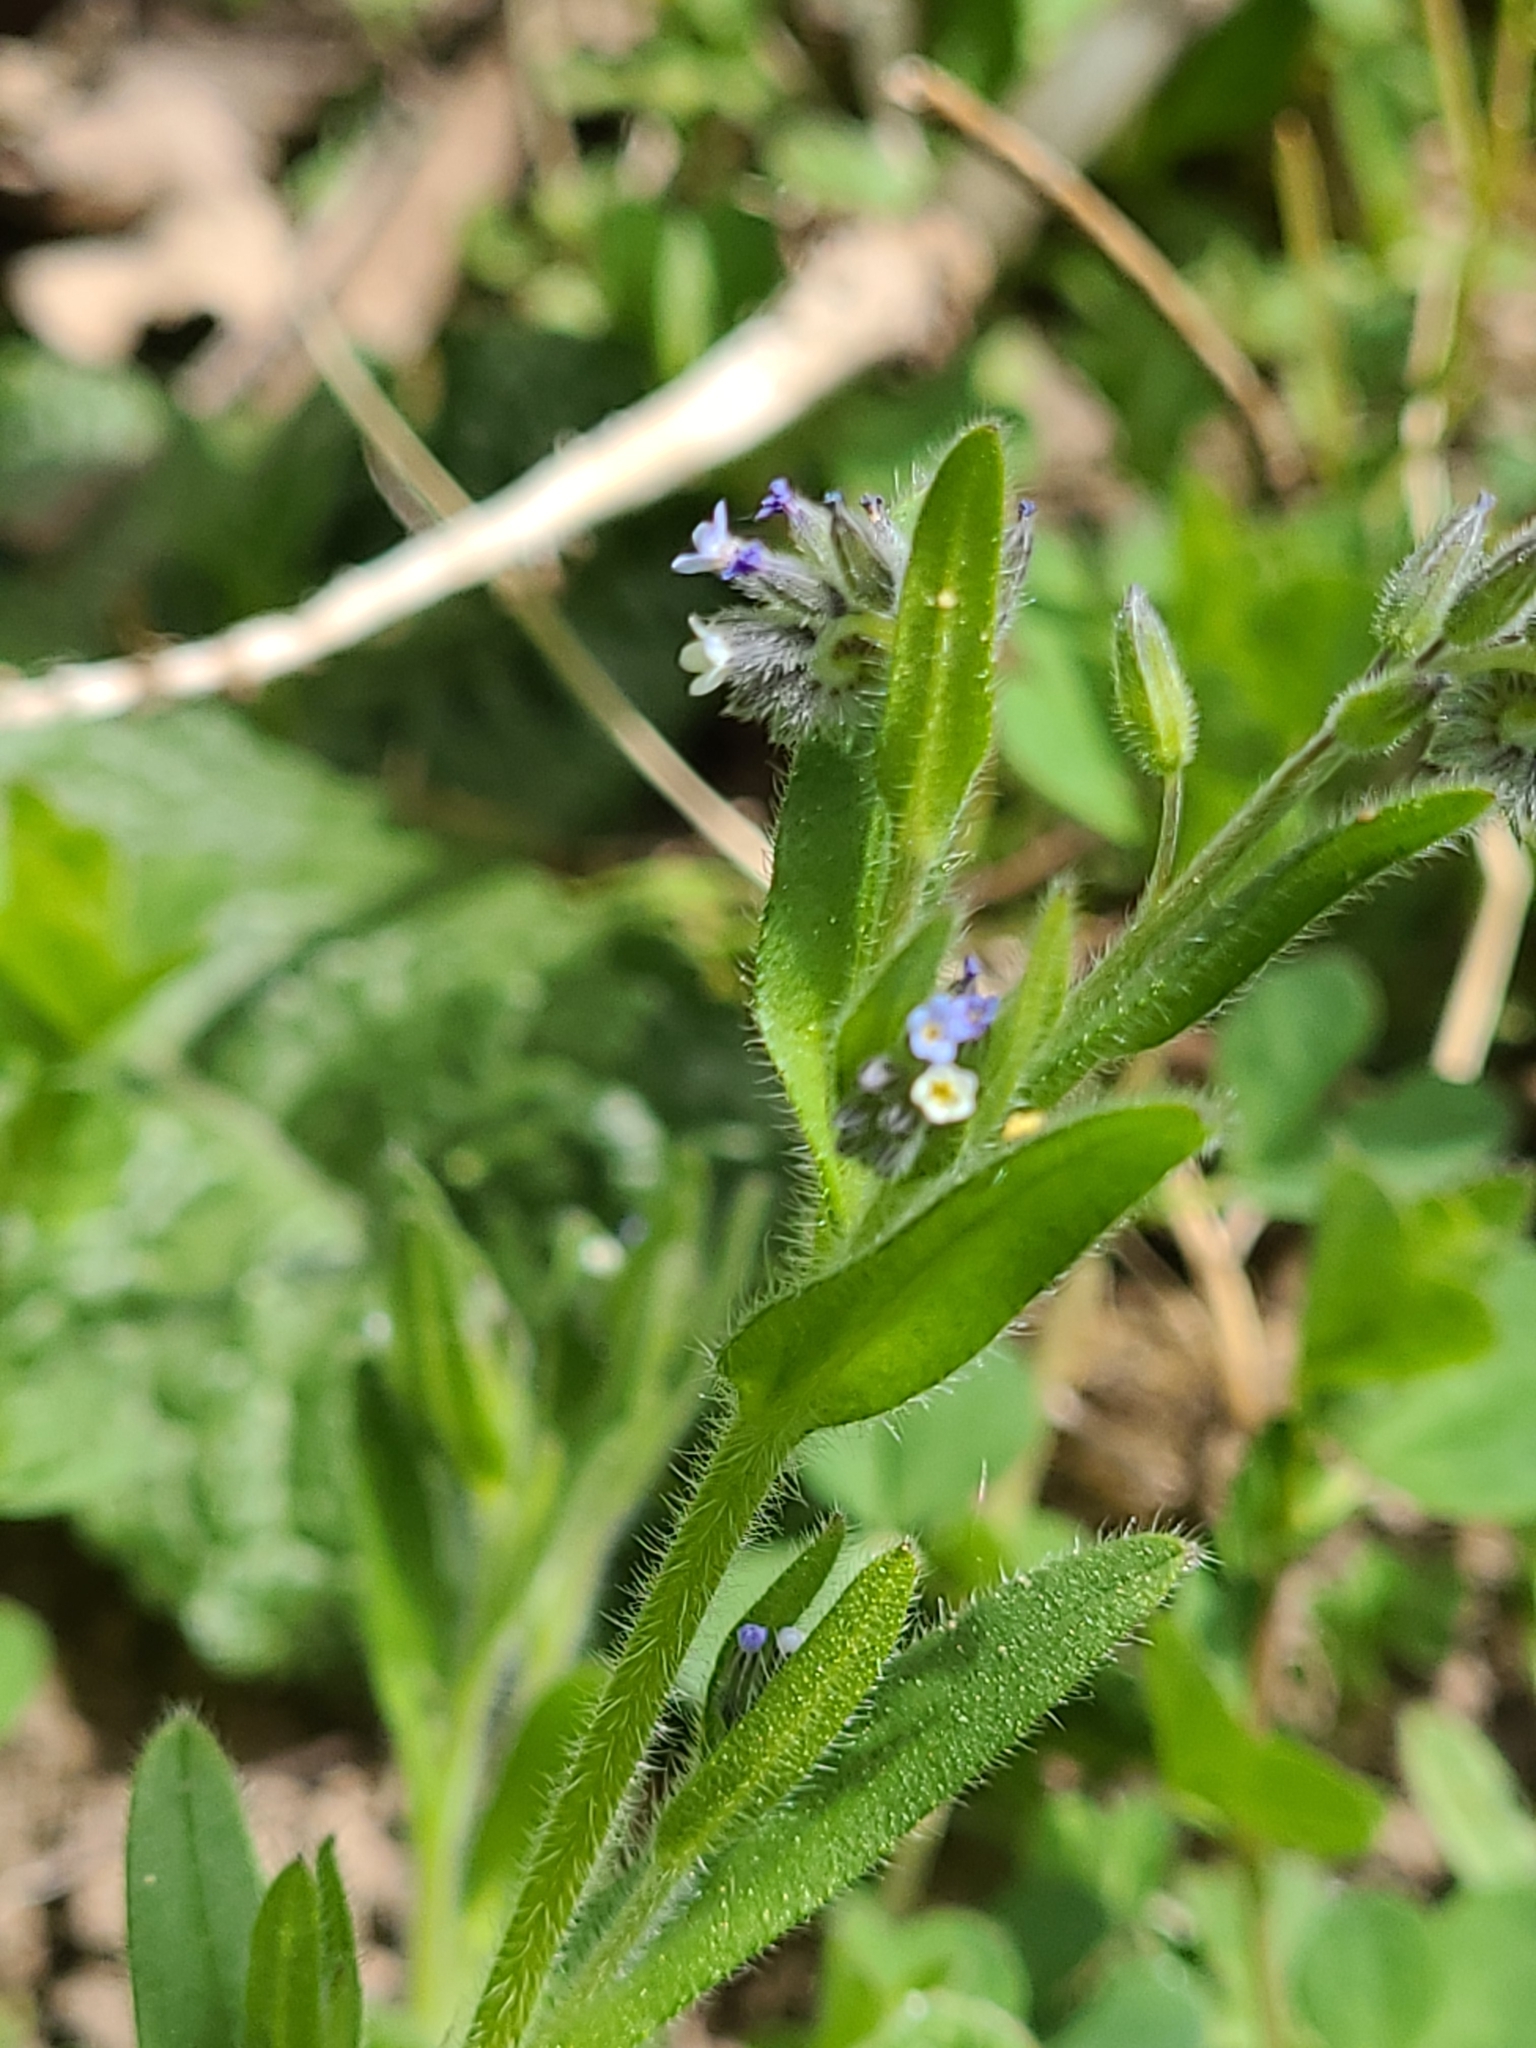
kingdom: Plantae
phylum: Tracheophyta
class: Magnoliopsida
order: Boraginales
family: Boraginaceae
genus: Myosotis
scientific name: Myosotis discolor
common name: Changing forget-me-not
